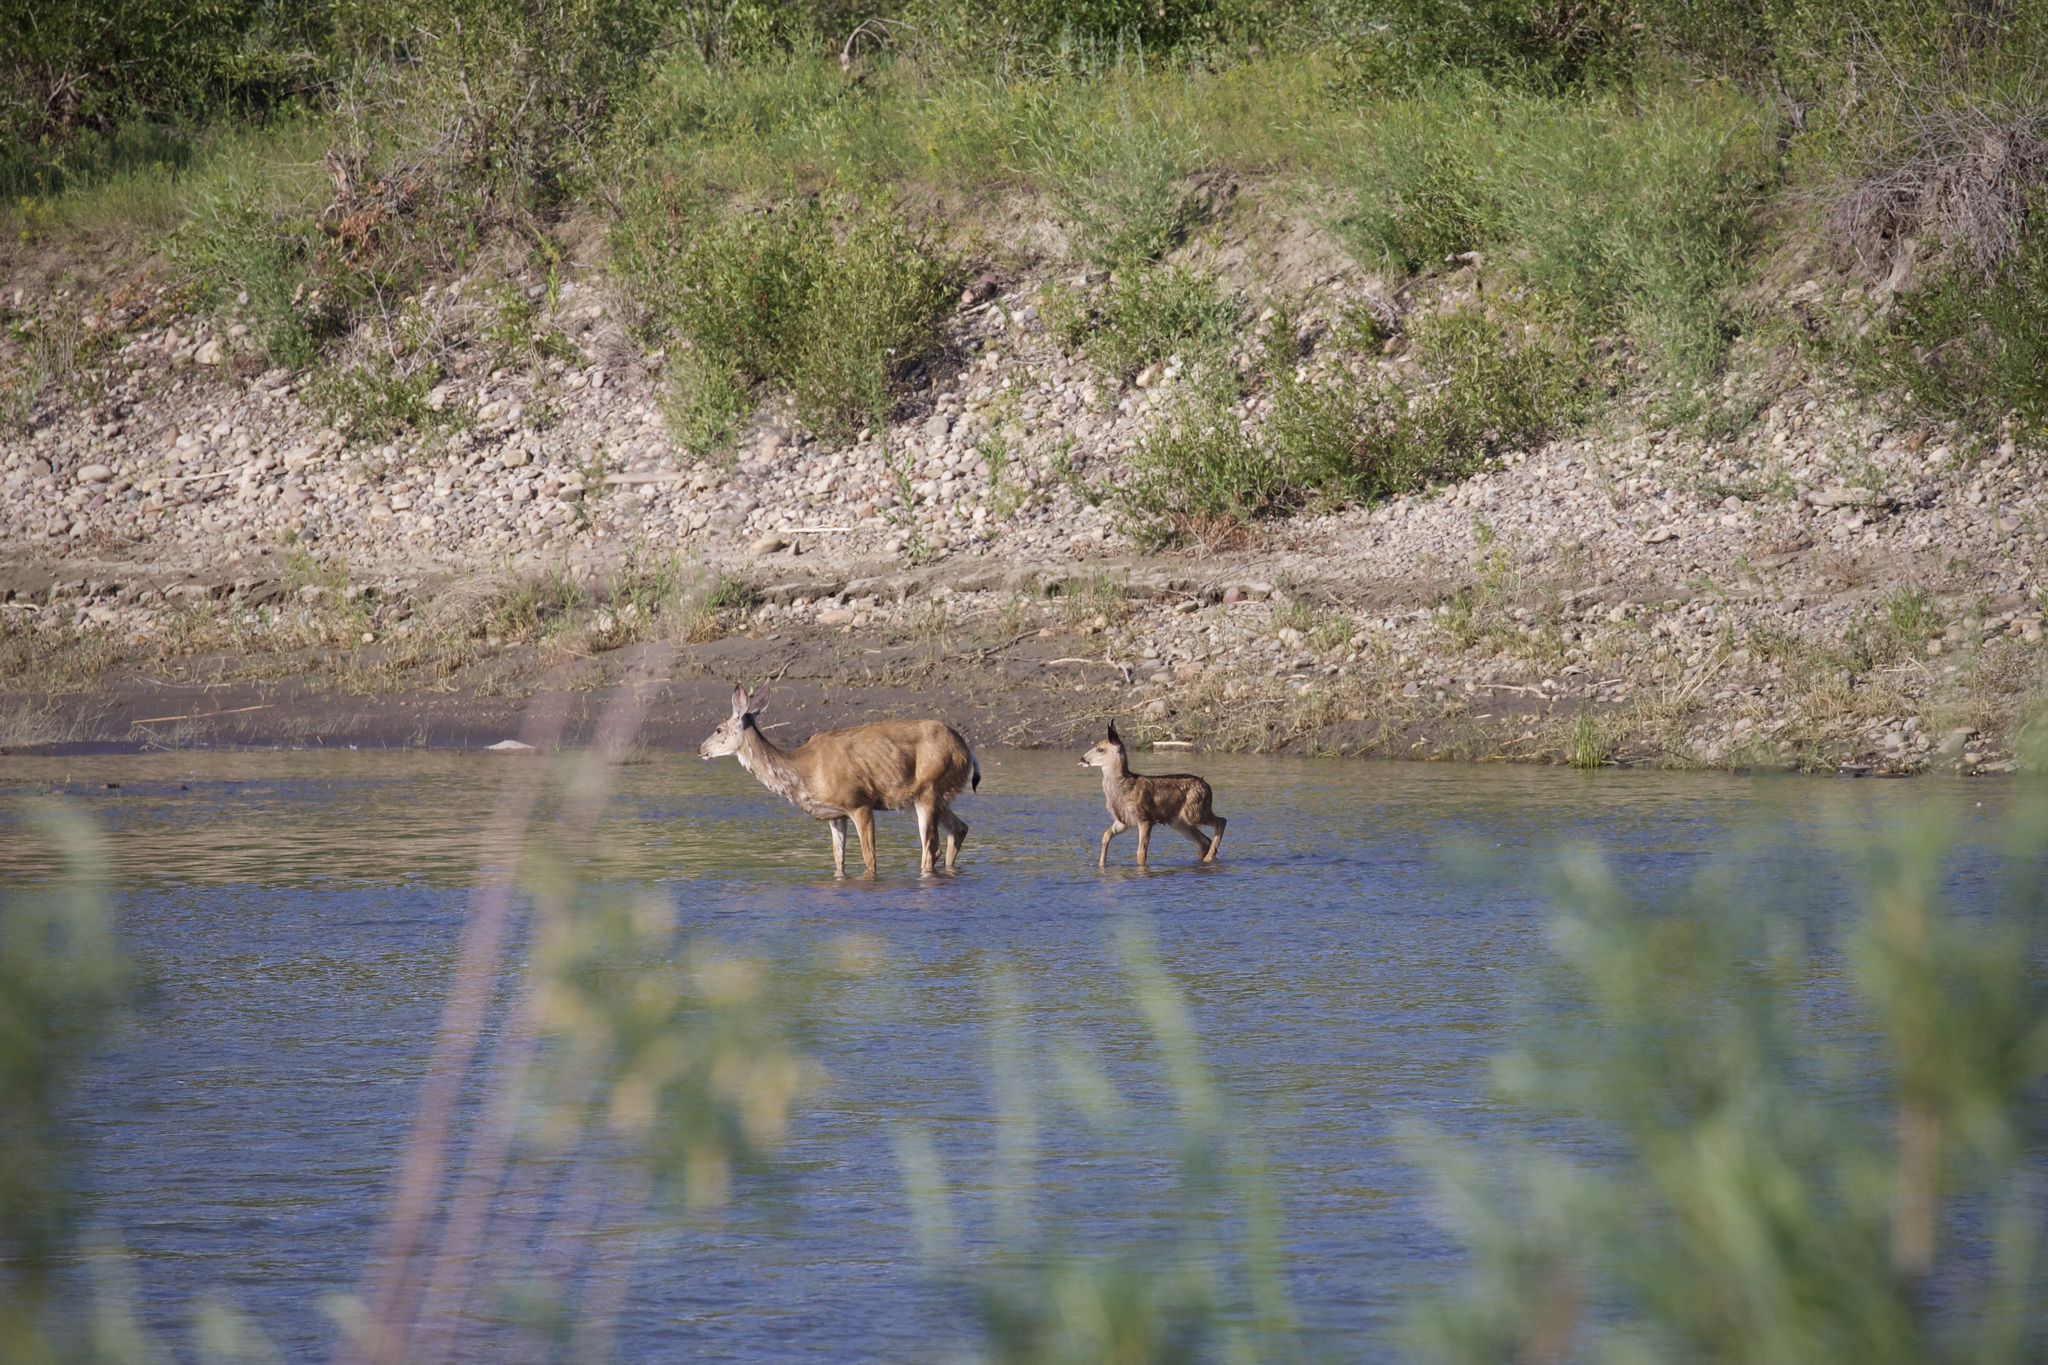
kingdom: Animalia
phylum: Chordata
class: Mammalia
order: Artiodactyla
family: Cervidae
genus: Odocoileus
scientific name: Odocoileus hemionus
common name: Mule deer
